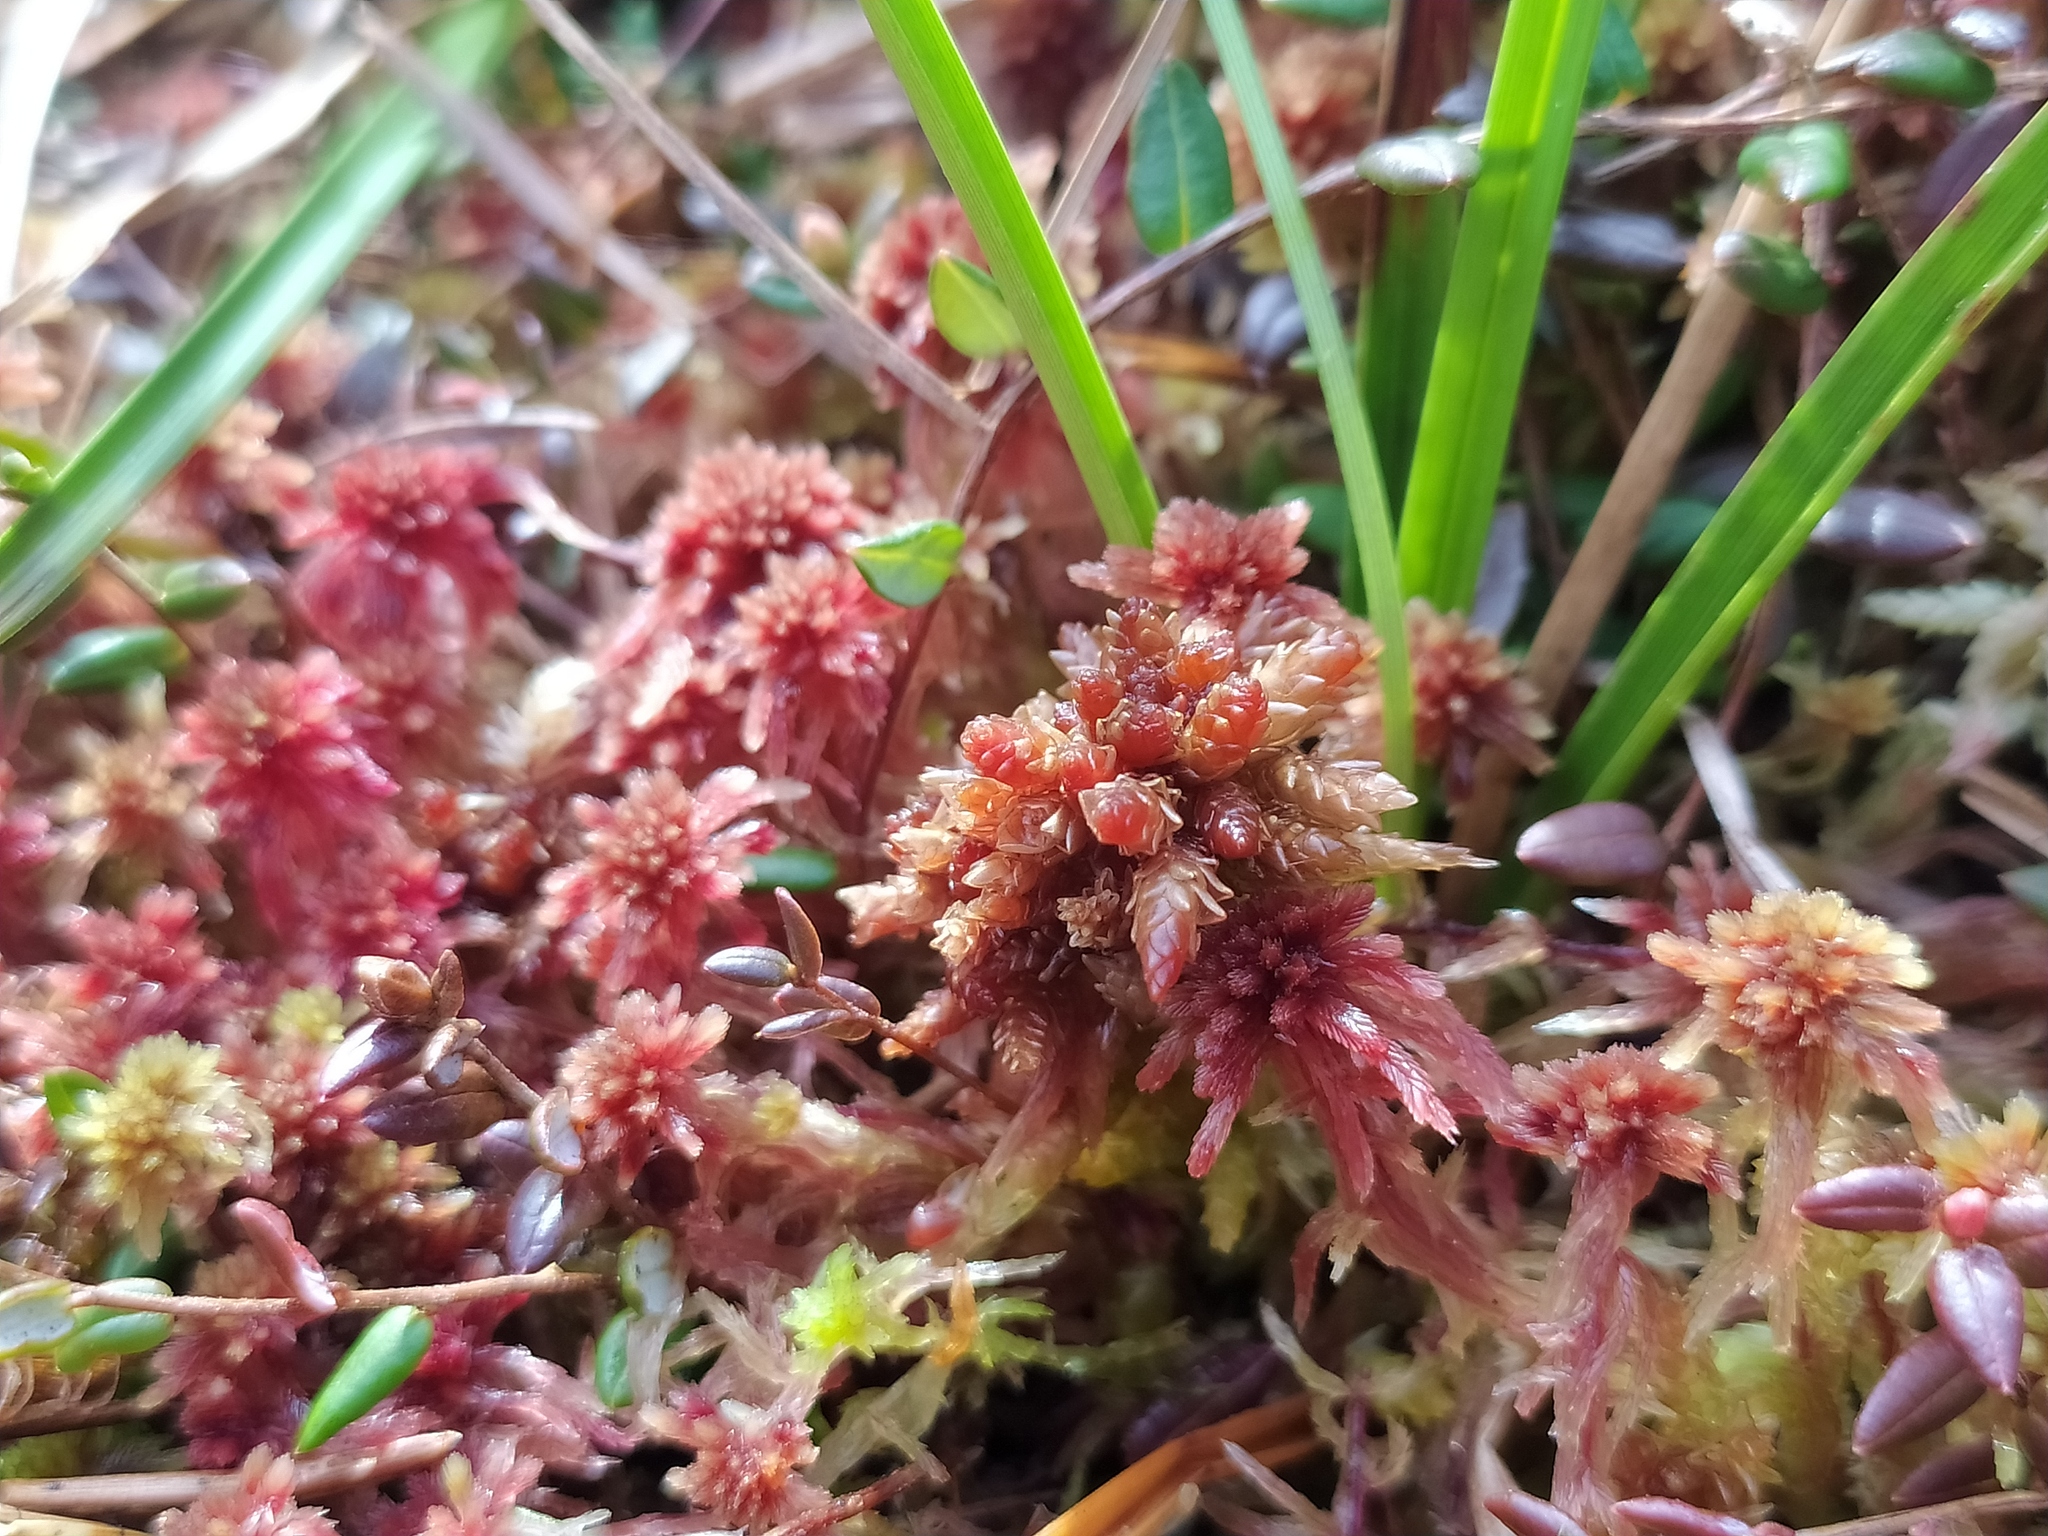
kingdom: Plantae
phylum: Bryophyta
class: Sphagnopsida
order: Sphagnales
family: Sphagnaceae
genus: Sphagnum
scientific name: Sphagnum divinum
